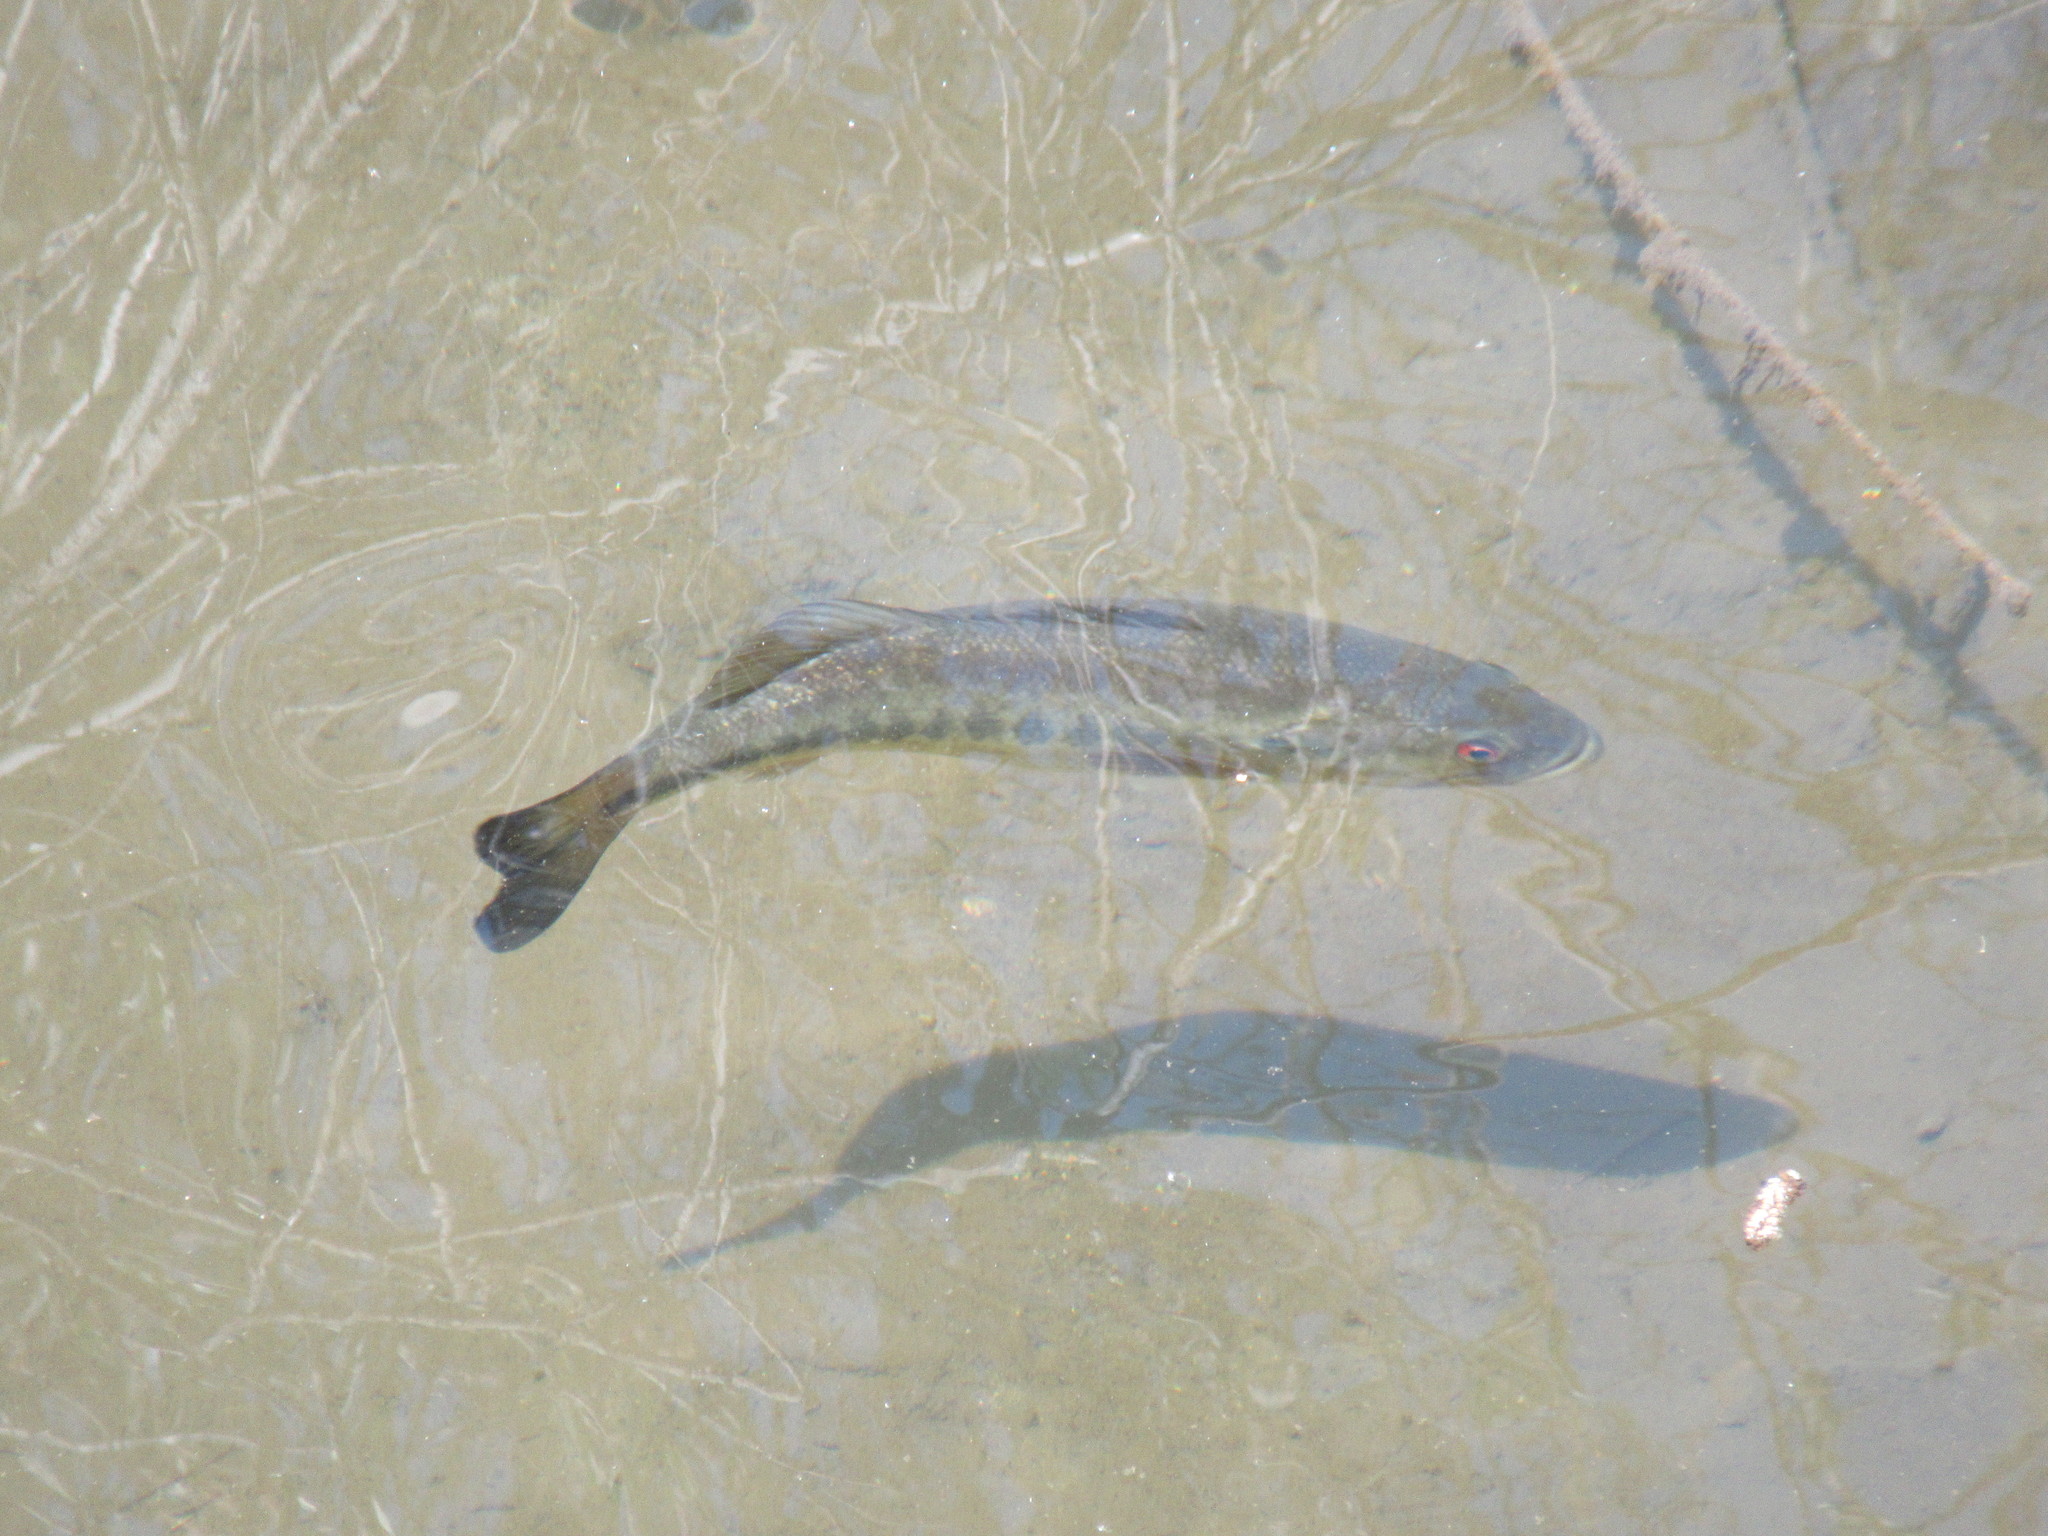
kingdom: Animalia
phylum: Chordata
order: Perciformes
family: Centrarchidae
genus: Micropterus
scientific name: Micropterus
